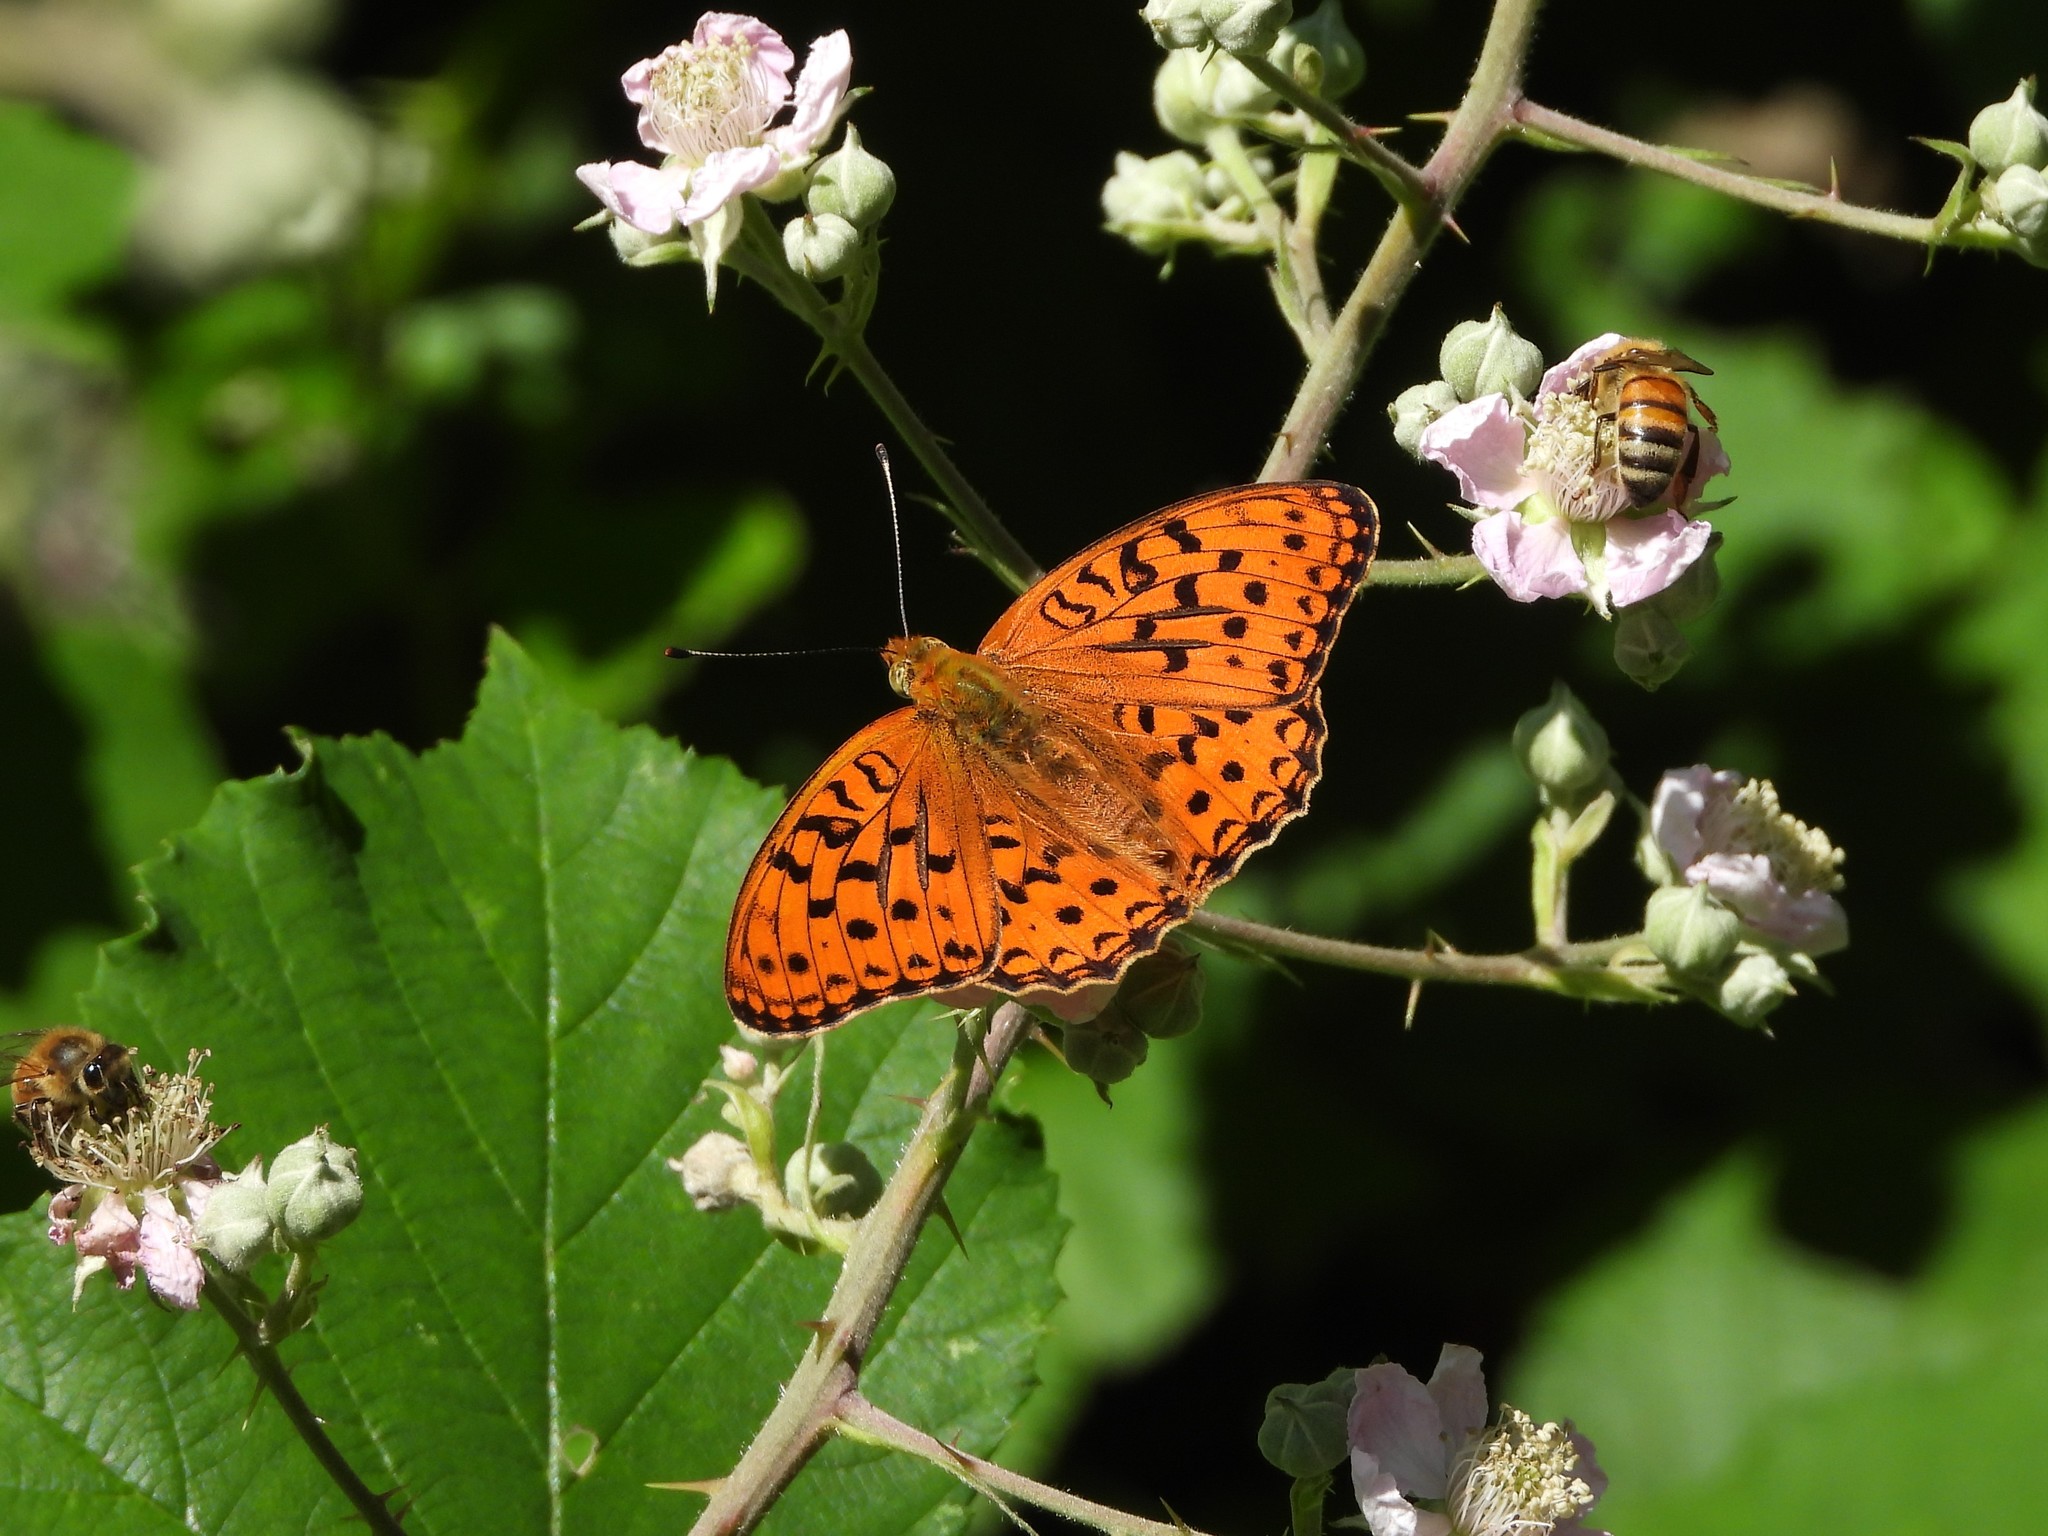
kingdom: Animalia
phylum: Arthropoda
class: Insecta
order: Lepidoptera
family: Nymphalidae
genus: Fabriciana
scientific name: Fabriciana adippe
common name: High brown fritillary
